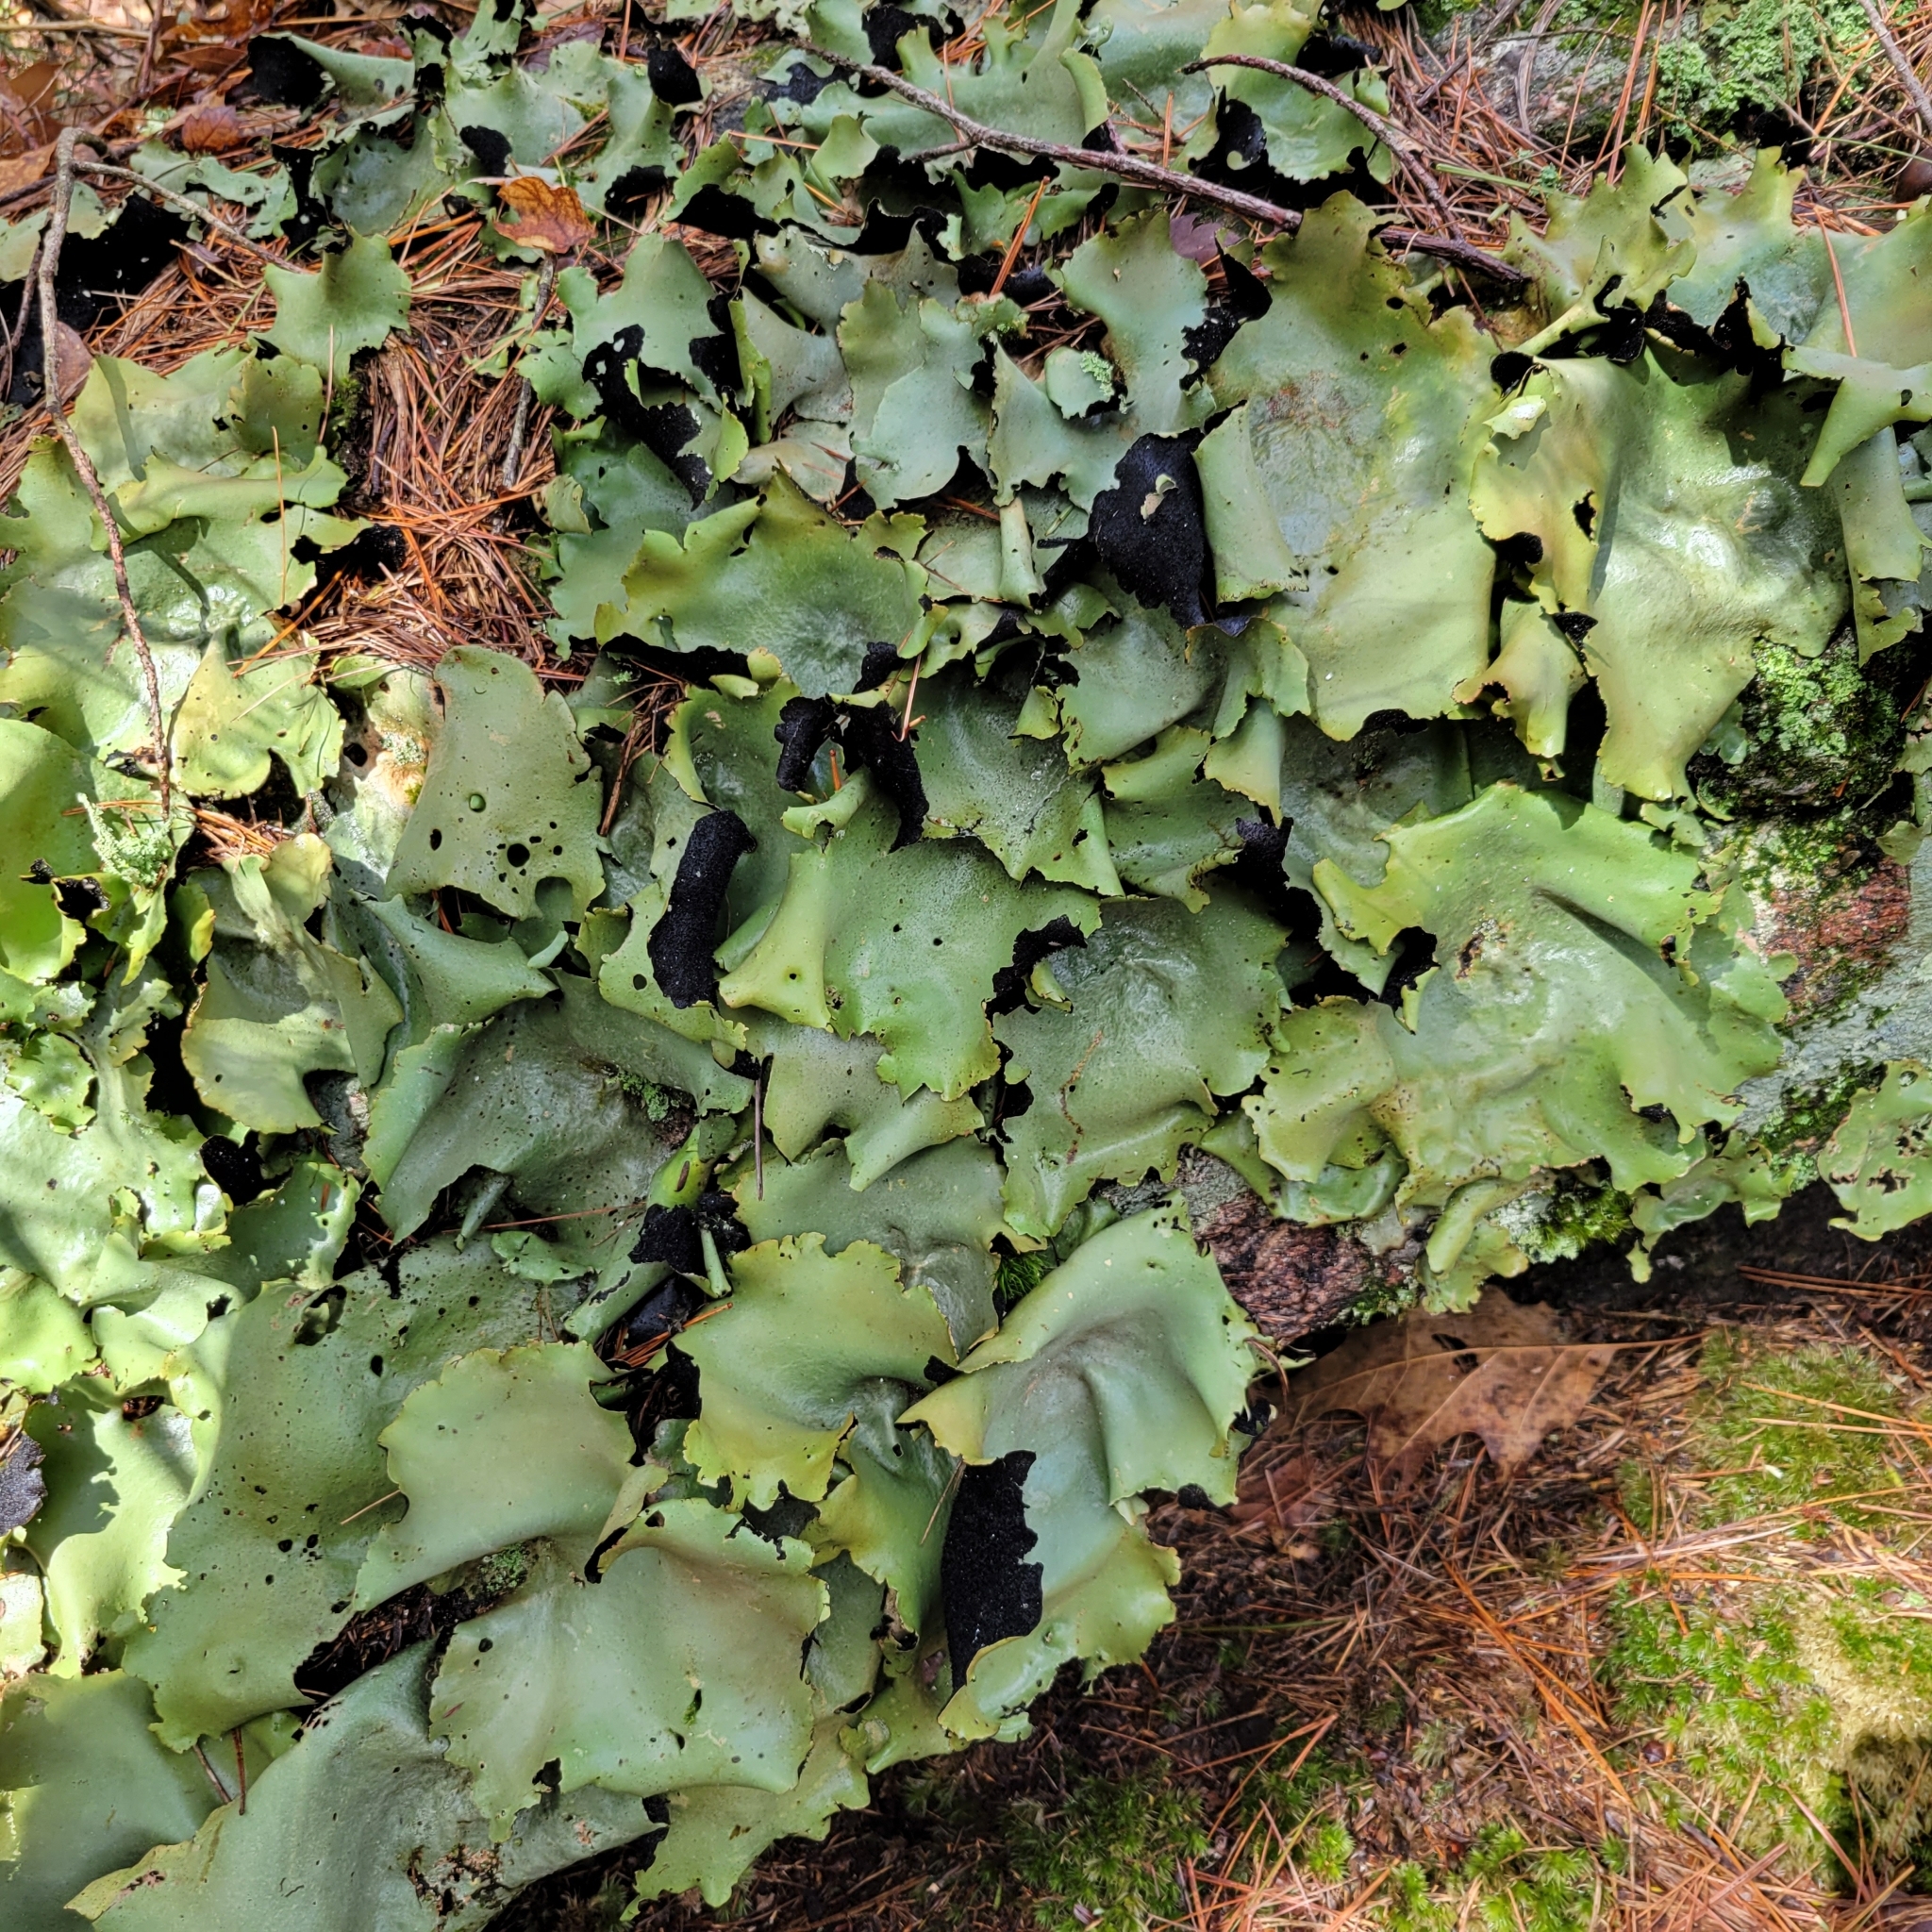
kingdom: Fungi
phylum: Ascomycota
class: Lecanoromycetes
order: Umbilicariales
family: Umbilicariaceae
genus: Umbilicaria
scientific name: Umbilicaria mammulata
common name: Smooth rock tripe
